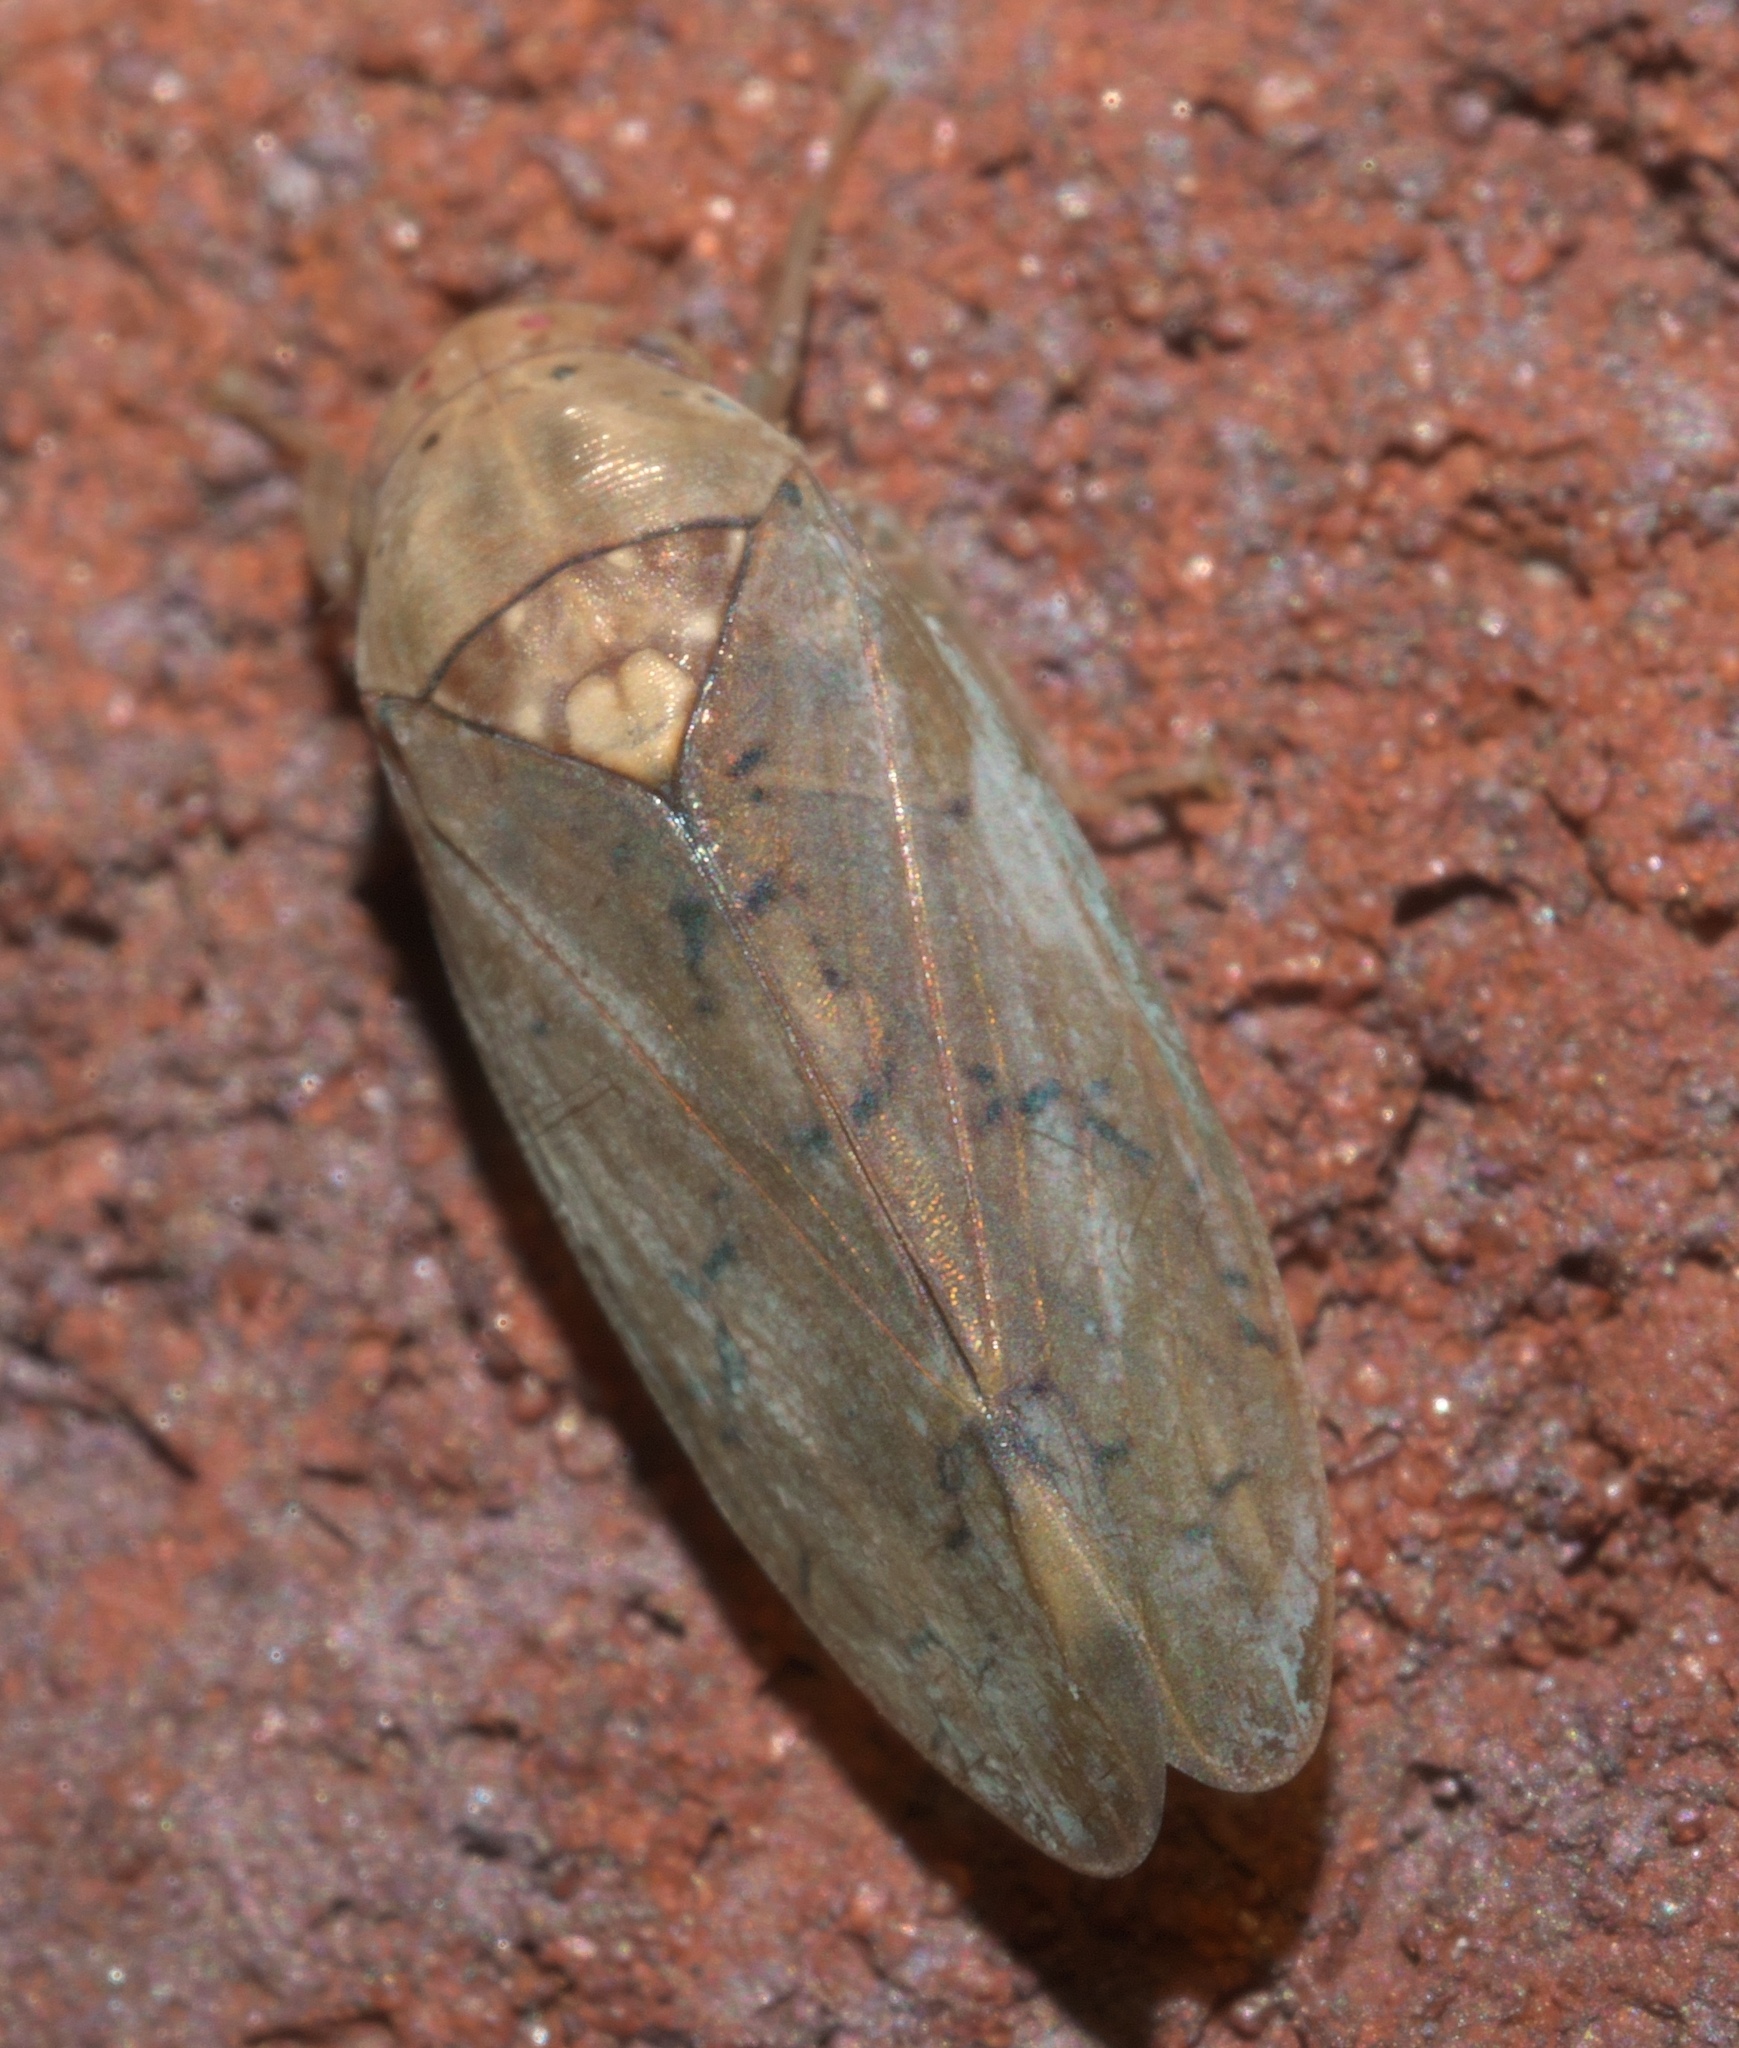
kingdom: Animalia
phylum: Arthropoda
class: Insecta
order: Hemiptera
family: Cicadellidae
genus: Ponana
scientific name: Ponana quadralaba
